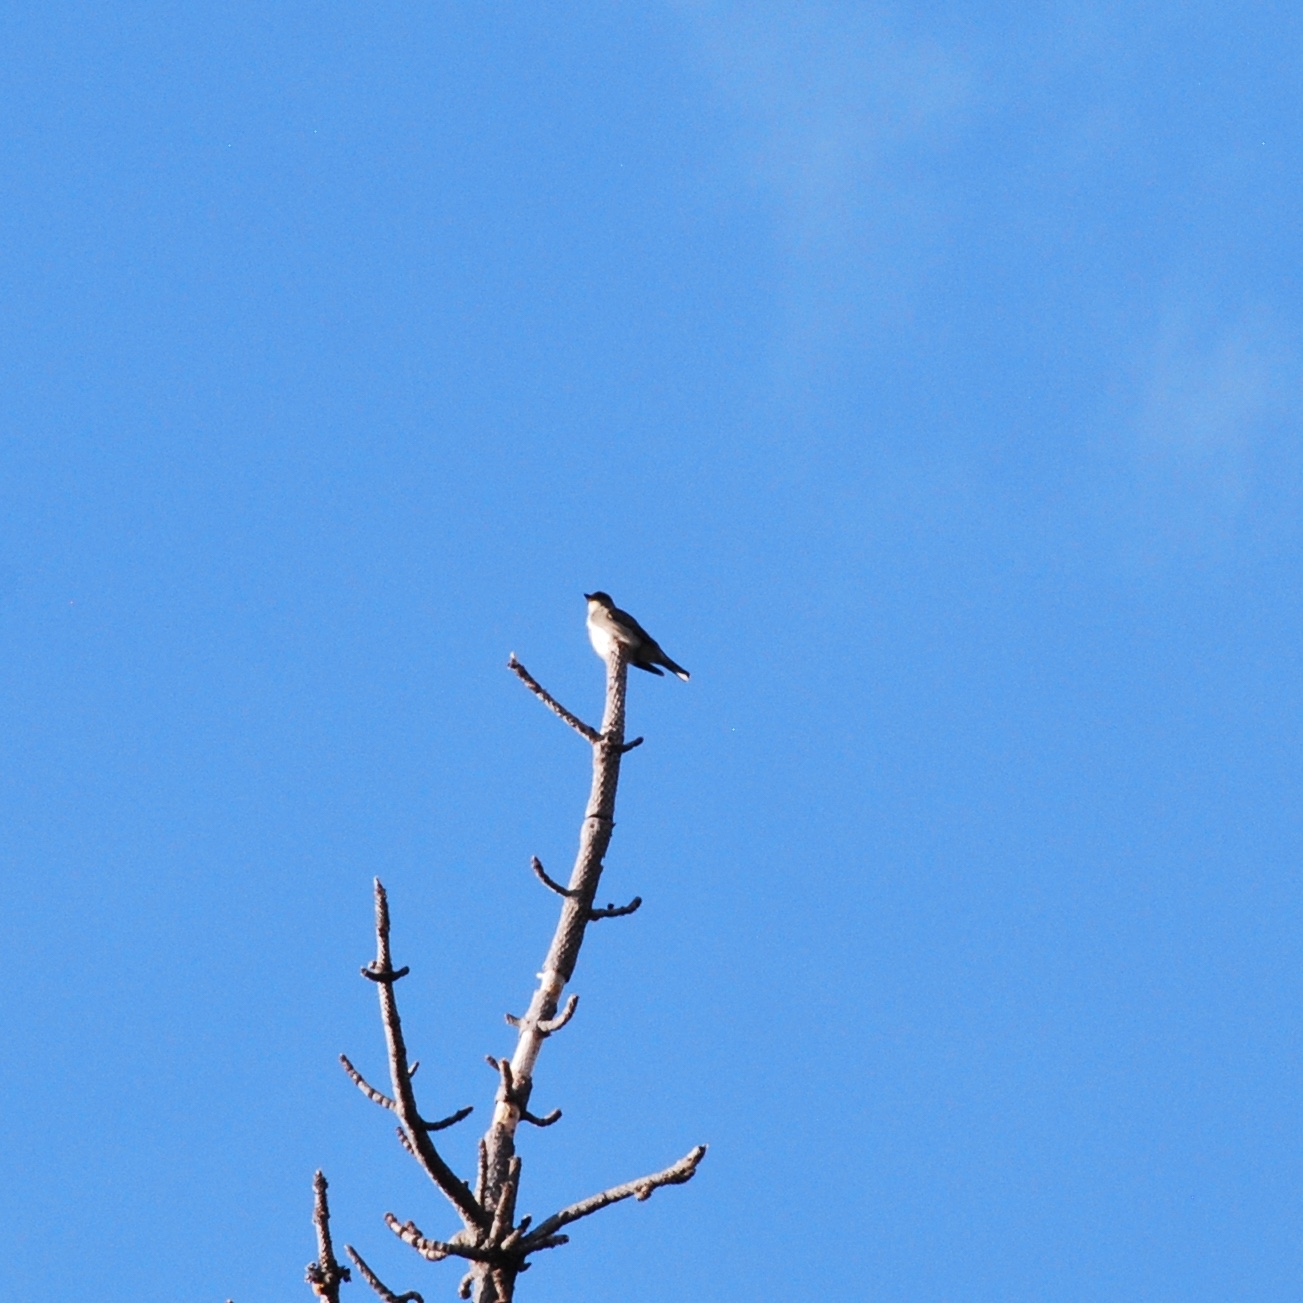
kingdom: Animalia
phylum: Chordata
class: Aves
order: Passeriformes
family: Tyrannidae
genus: Contopus
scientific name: Contopus cooperi
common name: Olive-sided flycatcher
